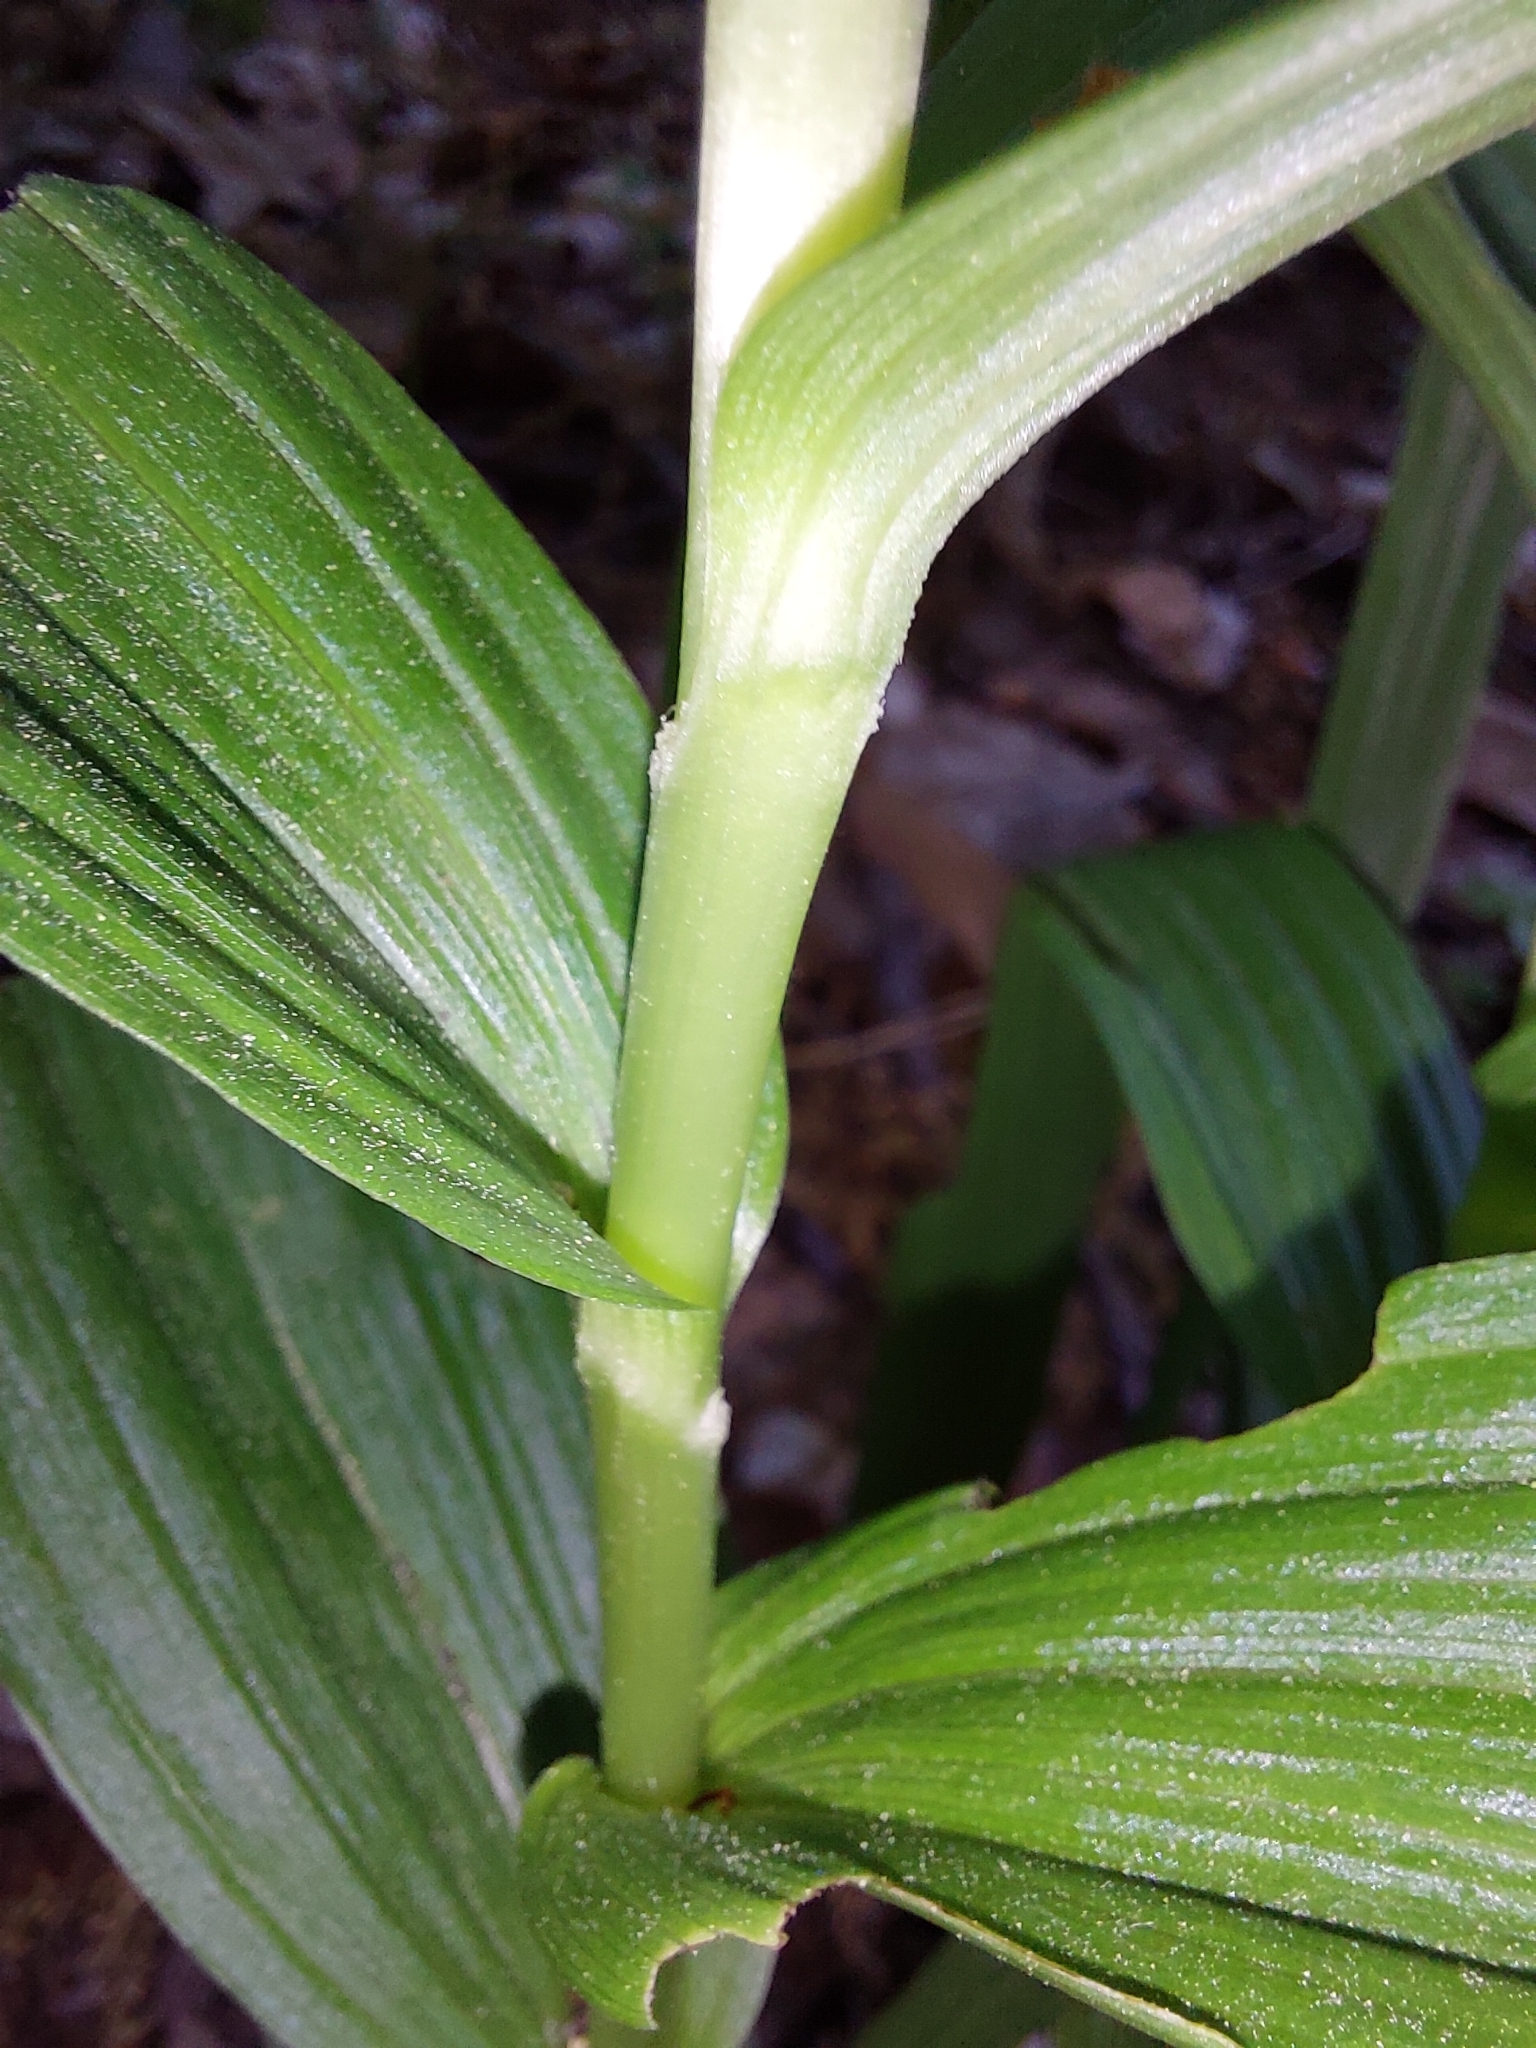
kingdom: Plantae
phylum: Tracheophyta
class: Liliopsida
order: Asparagales
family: Orchidaceae
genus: Cephalanthera
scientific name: Cephalanthera longifolia
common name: Narrow-leaved helleborine
